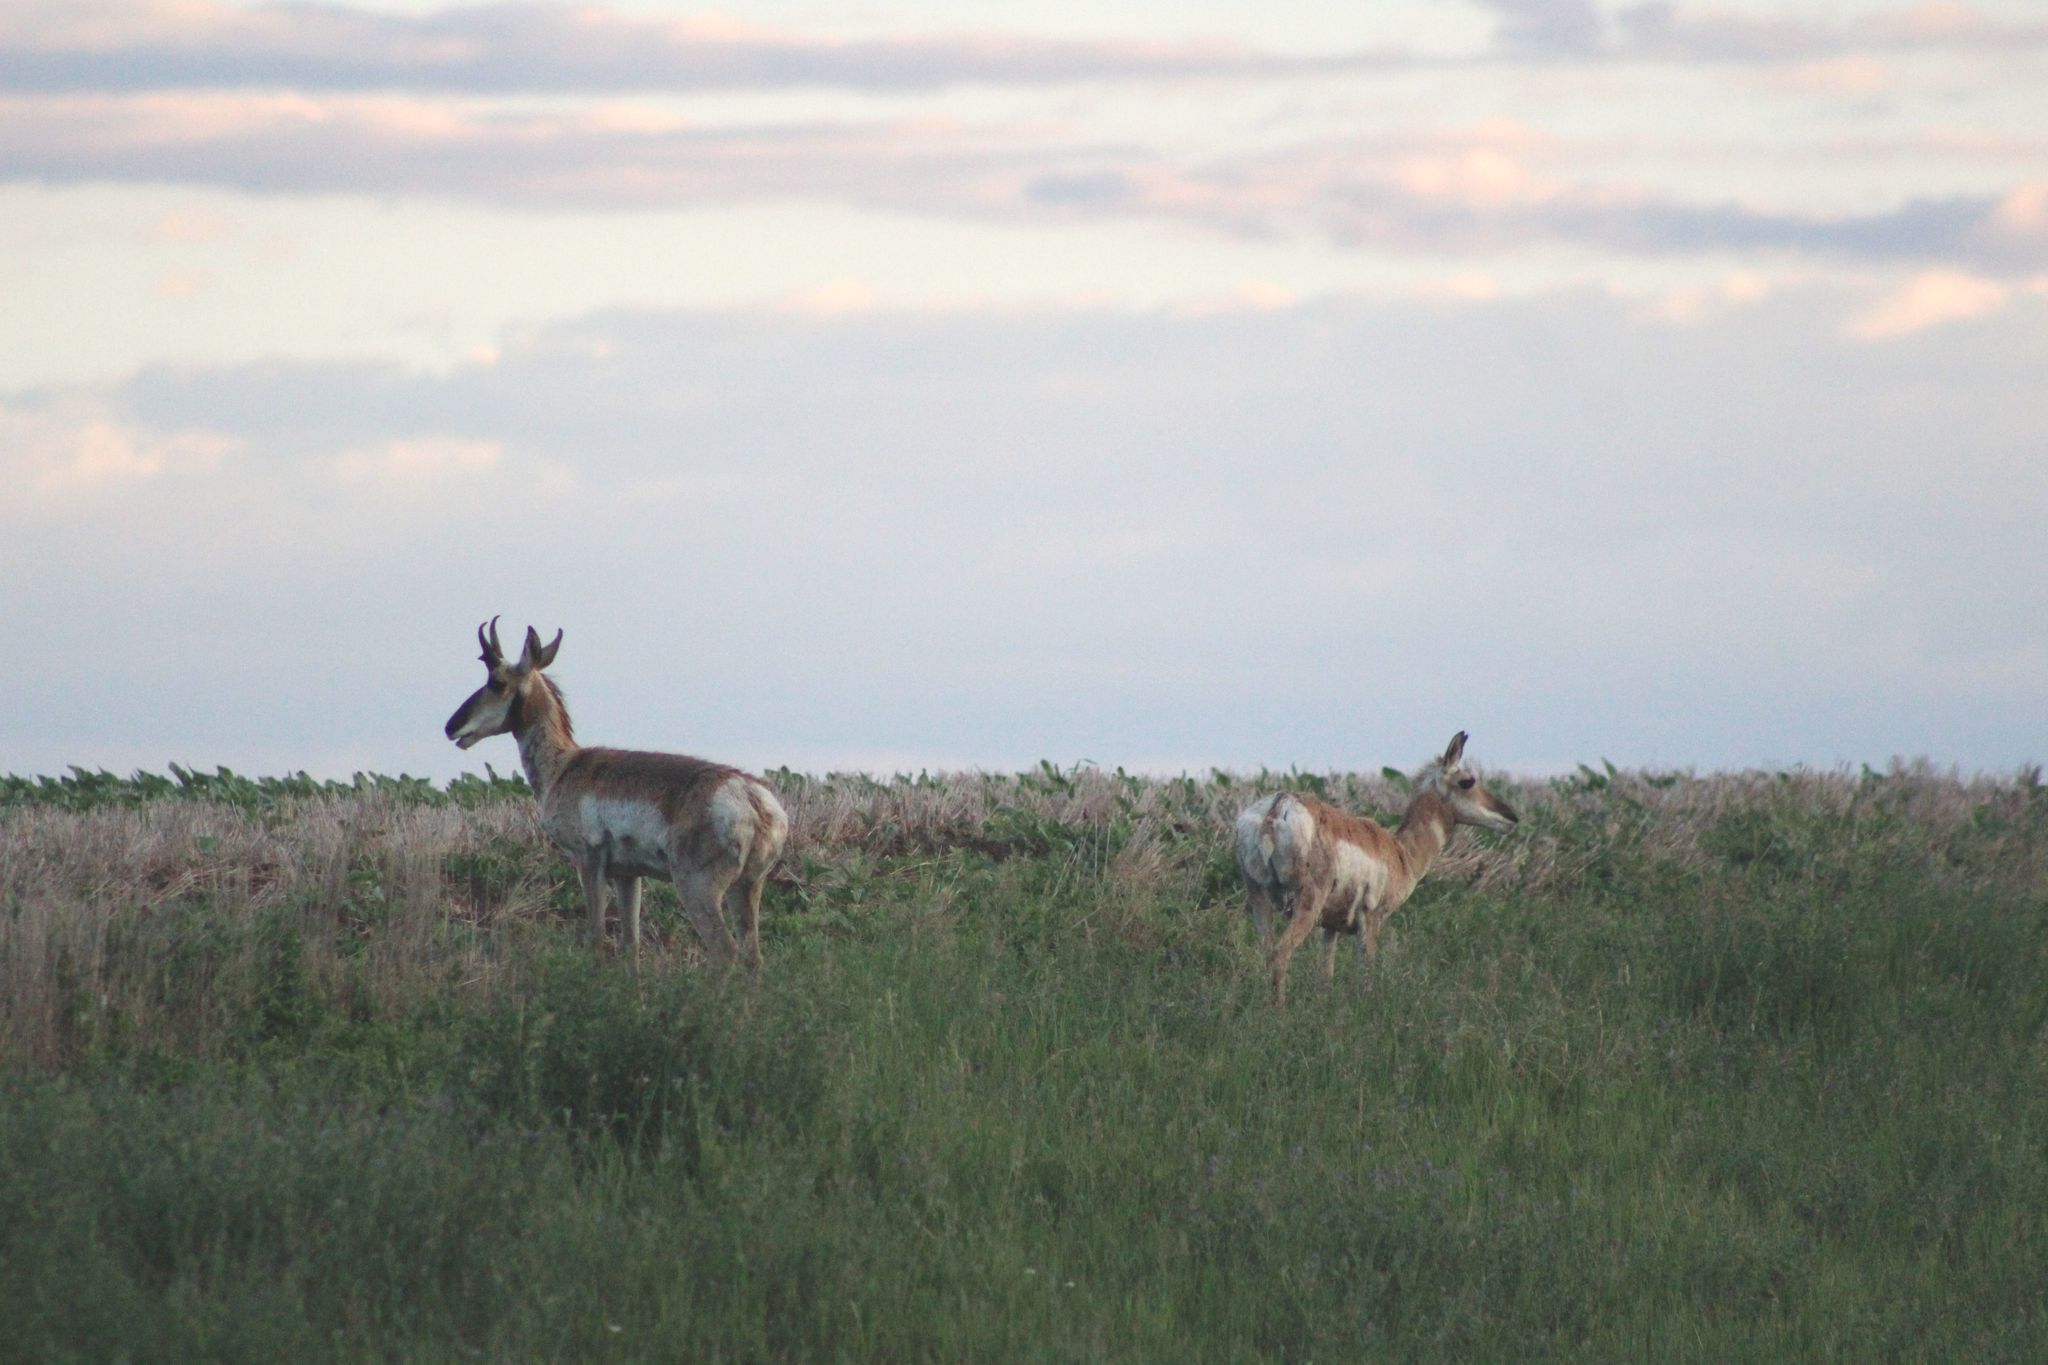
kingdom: Animalia
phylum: Chordata
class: Mammalia
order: Artiodactyla
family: Antilocapridae
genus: Antilocapra
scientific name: Antilocapra americana
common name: Pronghorn
